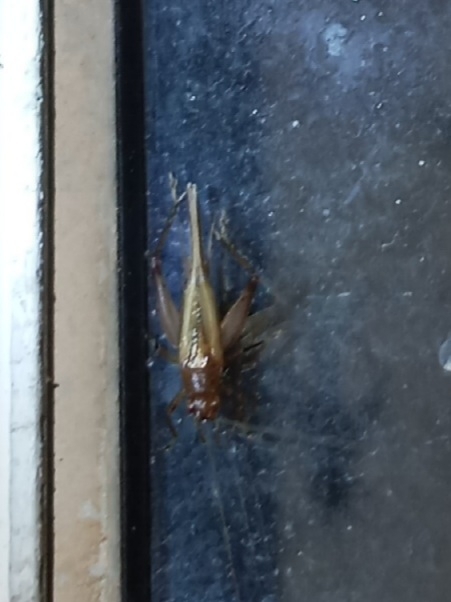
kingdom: Animalia
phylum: Arthropoda
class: Insecta
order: Orthoptera
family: Trigonidiidae
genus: Anaxipha
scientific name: Anaxipha vernalis
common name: Spring trig
